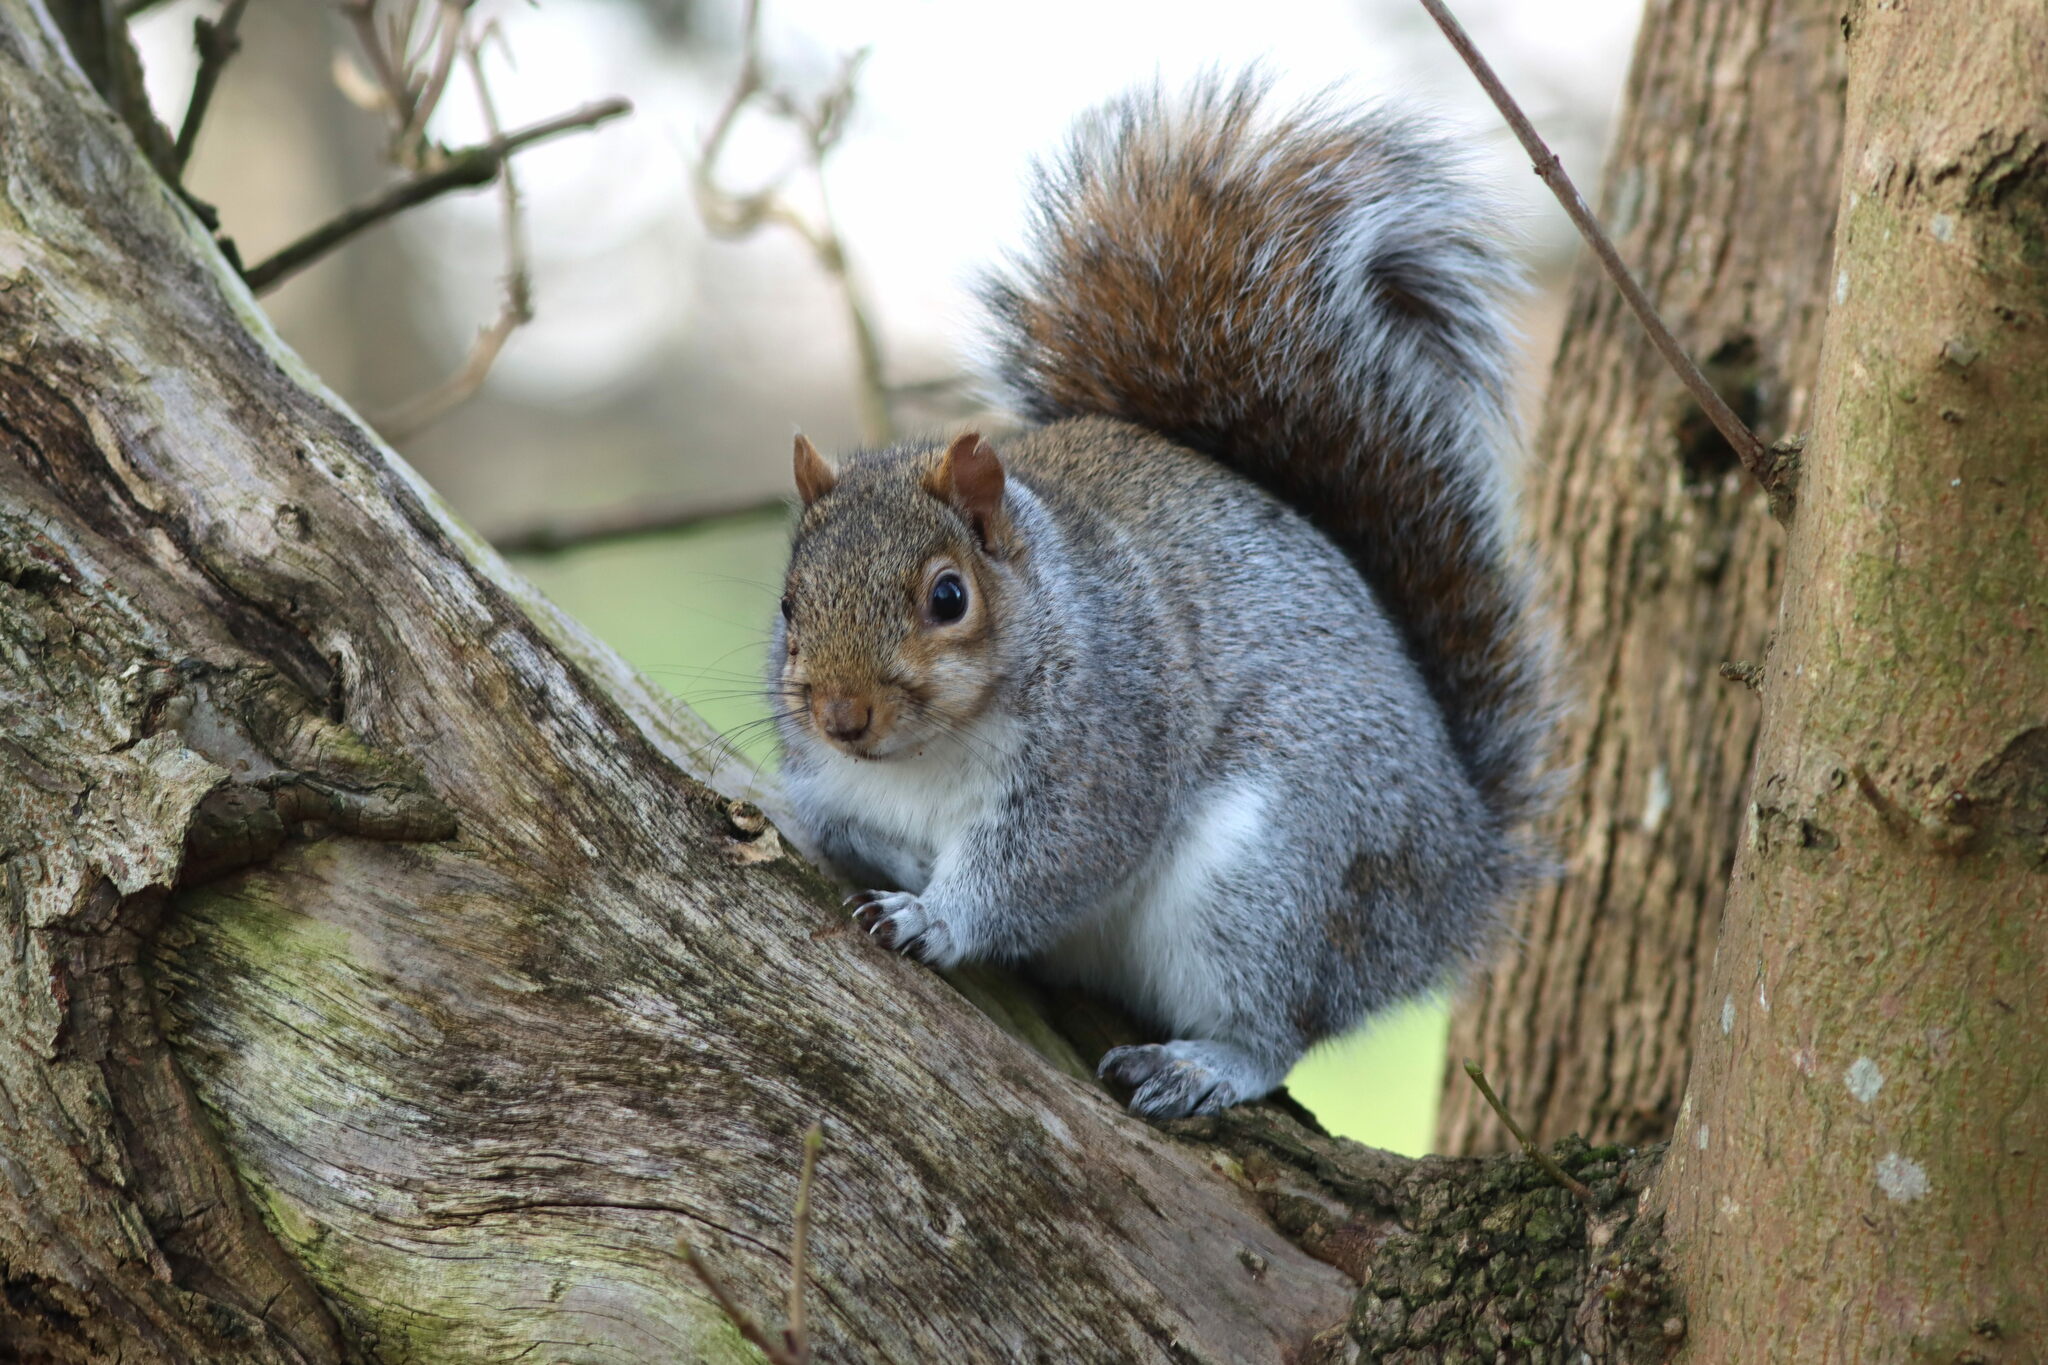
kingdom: Animalia
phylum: Chordata
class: Mammalia
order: Rodentia
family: Sciuridae
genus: Sciurus
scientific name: Sciurus carolinensis
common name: Eastern gray squirrel
